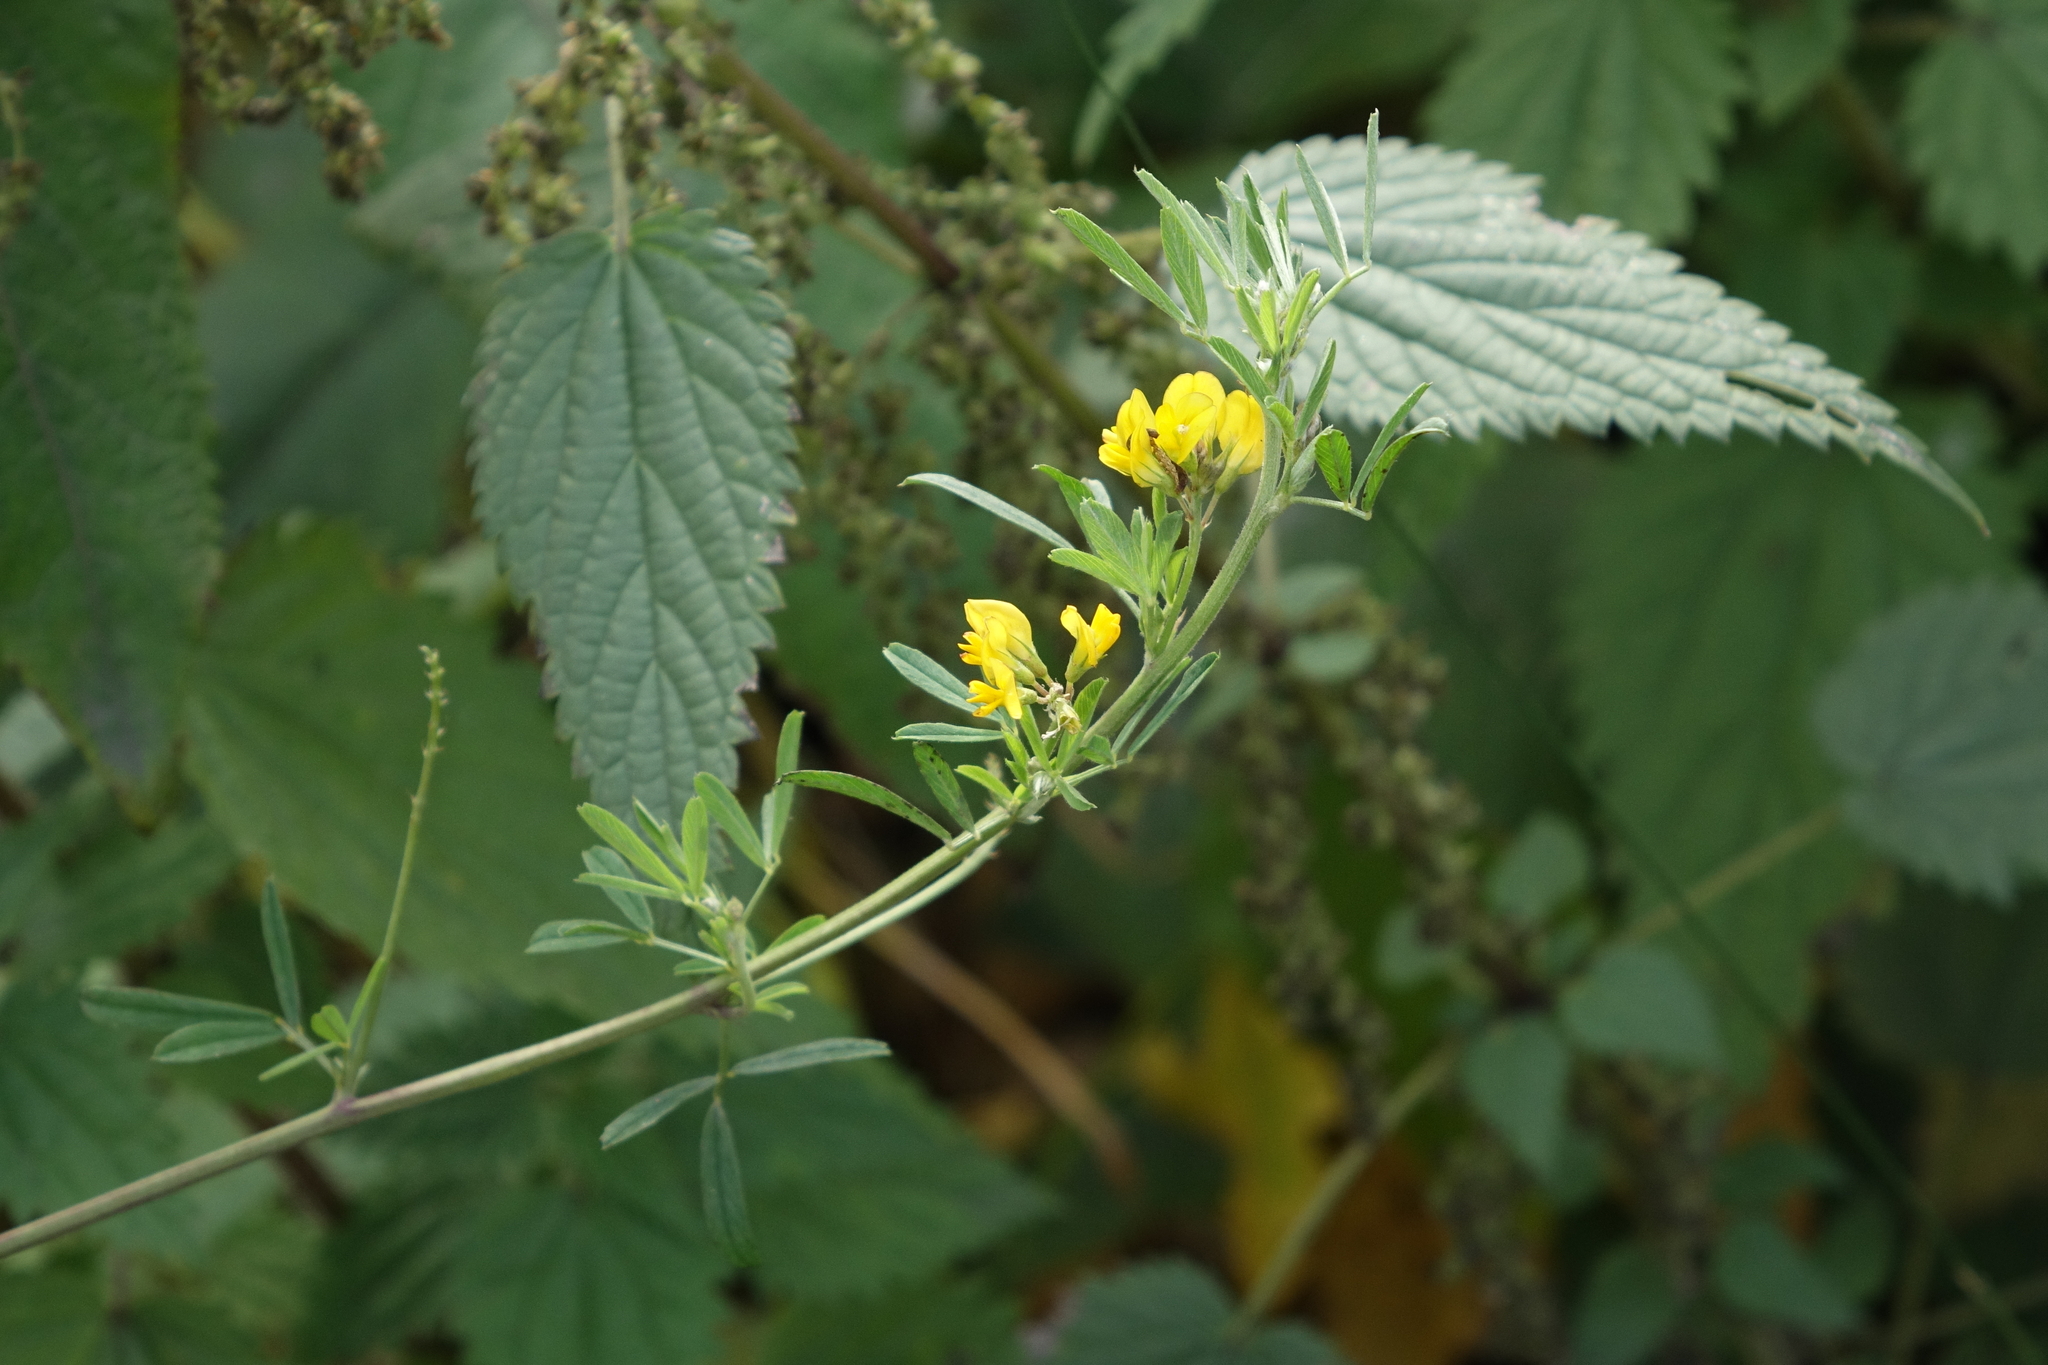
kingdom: Plantae
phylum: Tracheophyta
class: Magnoliopsida
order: Fabales
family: Fabaceae
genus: Medicago
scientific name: Medicago falcata
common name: Sickle medick
